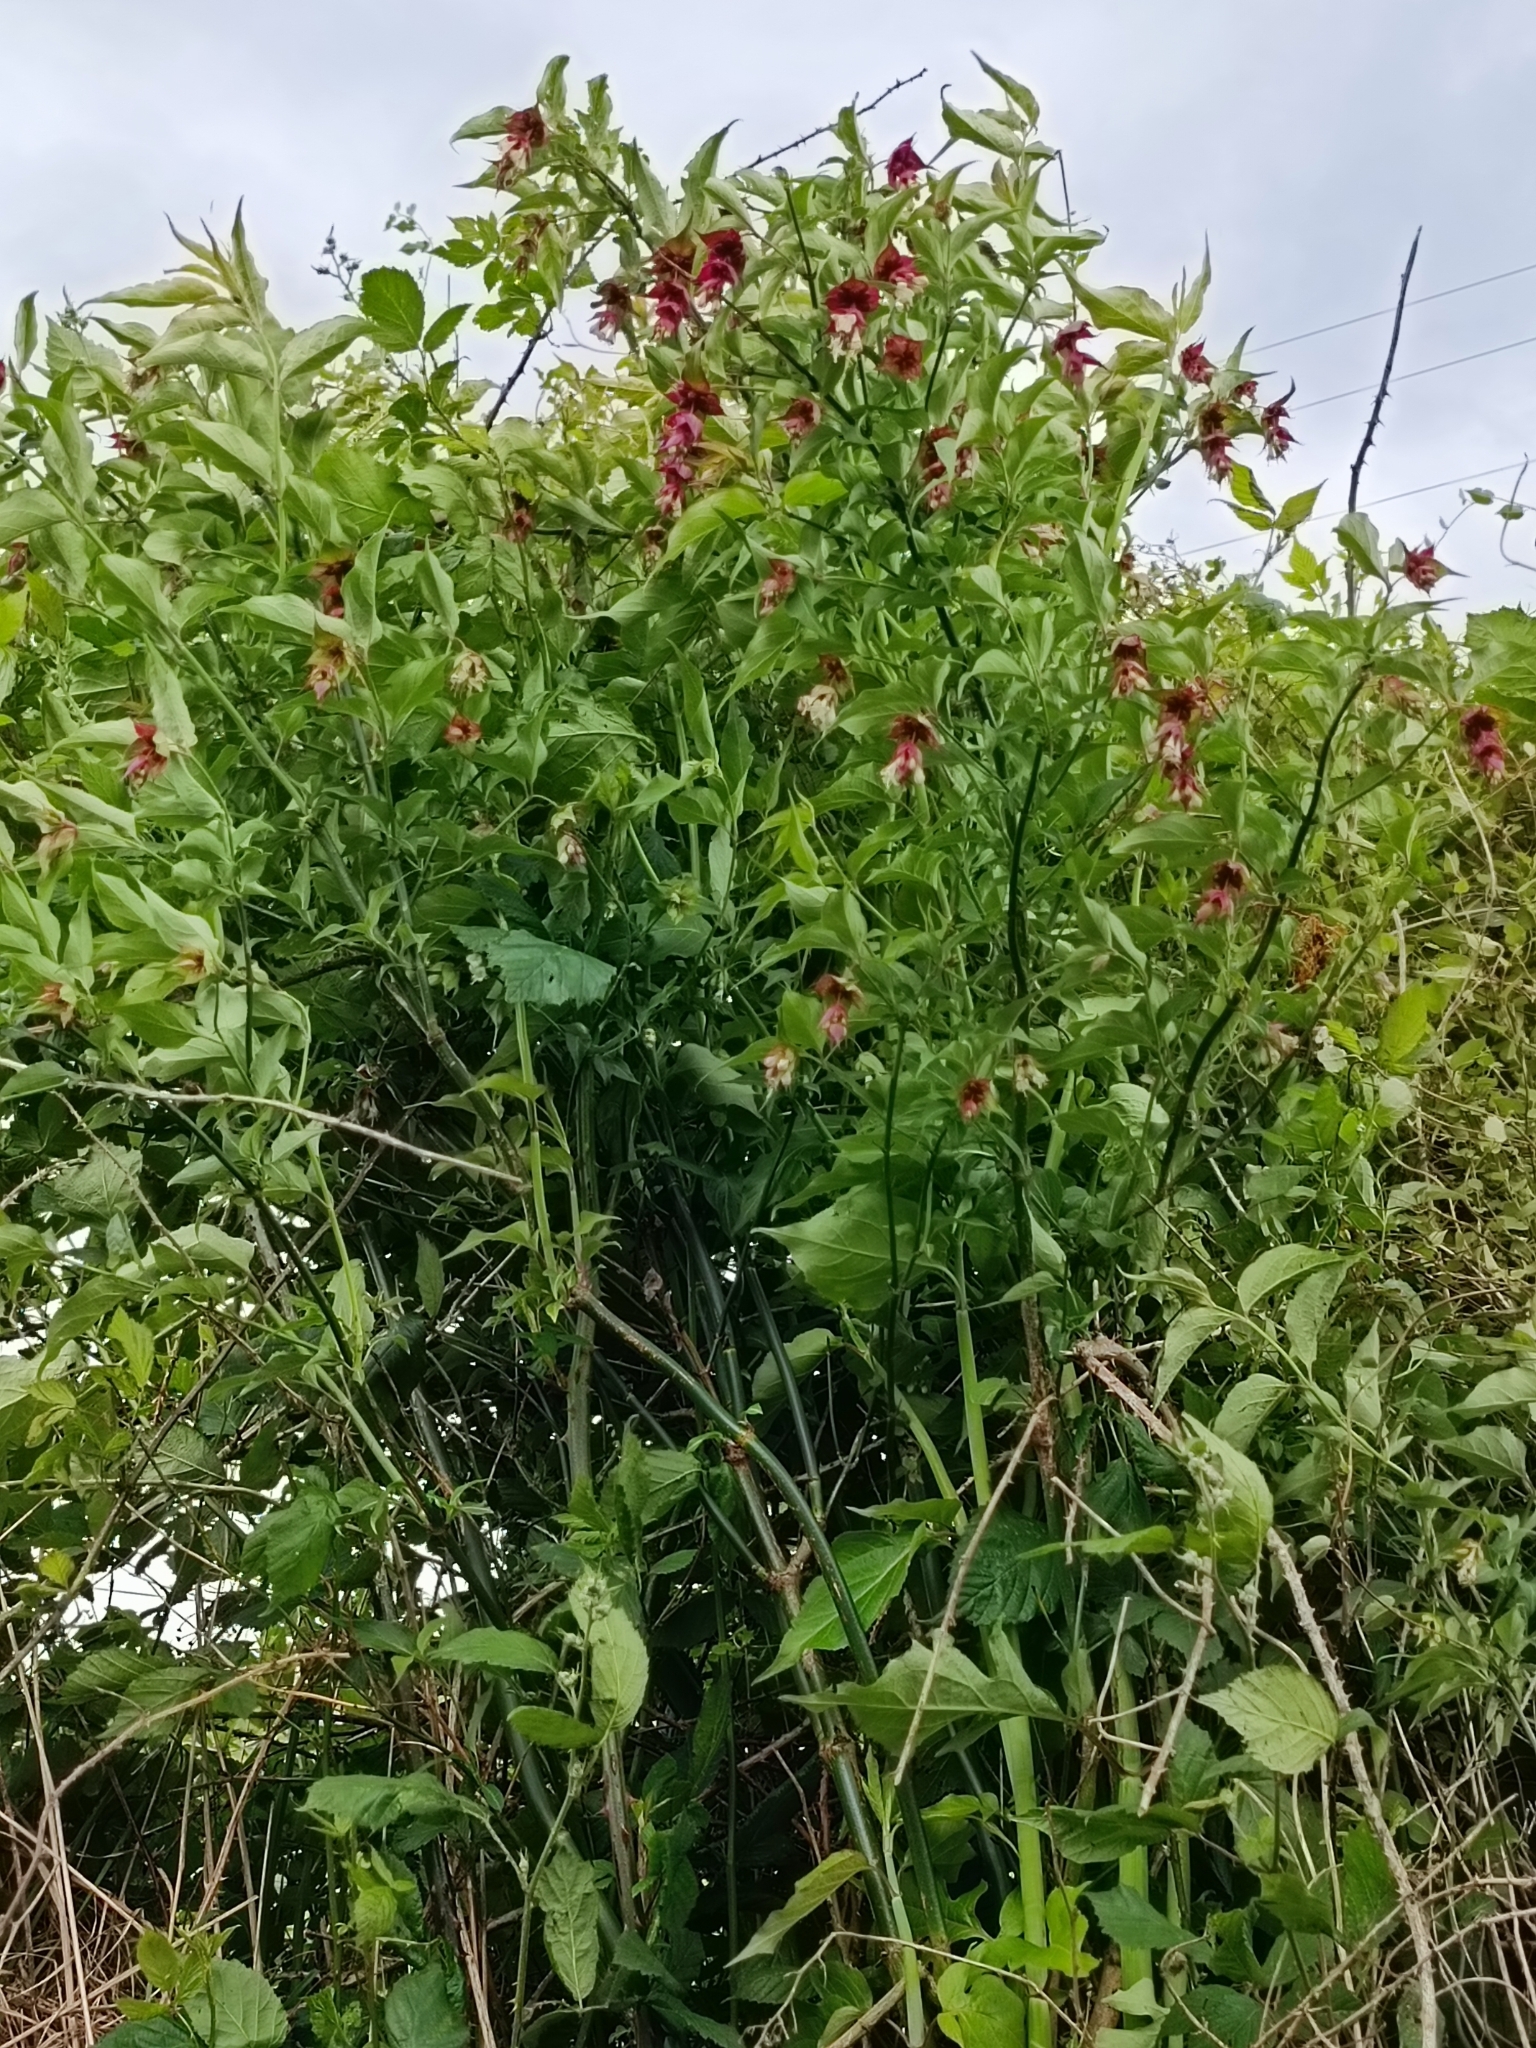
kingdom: Plantae
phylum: Tracheophyta
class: Magnoliopsida
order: Dipsacales
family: Caprifoliaceae
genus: Leycesteria
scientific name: Leycesteria formosa
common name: Himalayan honeysuckle
